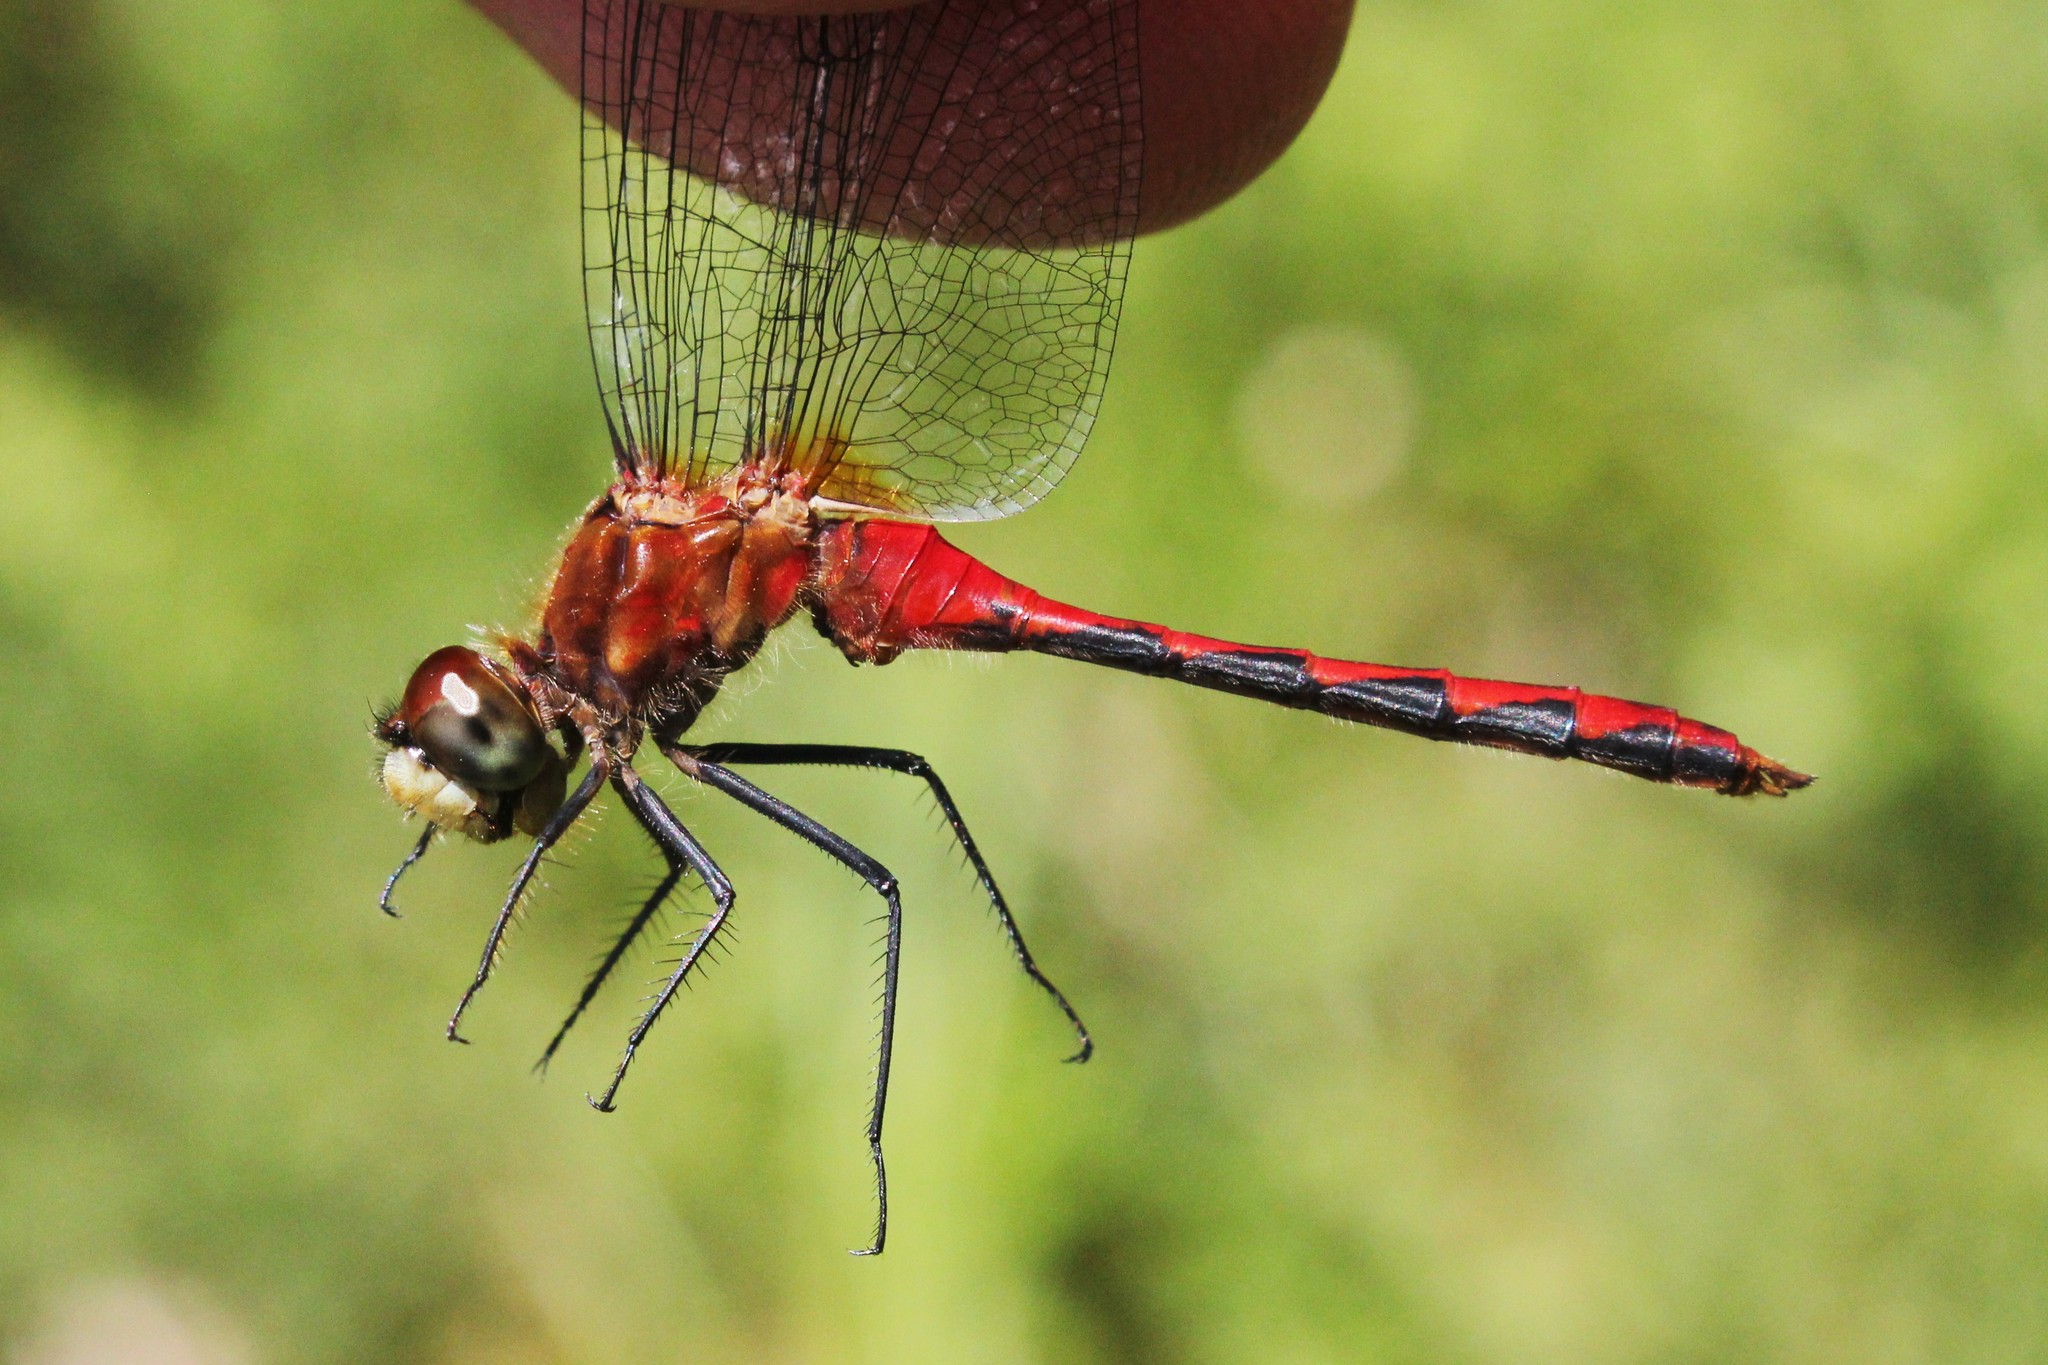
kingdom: Animalia
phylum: Arthropoda
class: Insecta
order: Odonata
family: Libellulidae
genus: Sympetrum
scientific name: Sympetrum obtrusum
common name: White-faced meadowhawk
